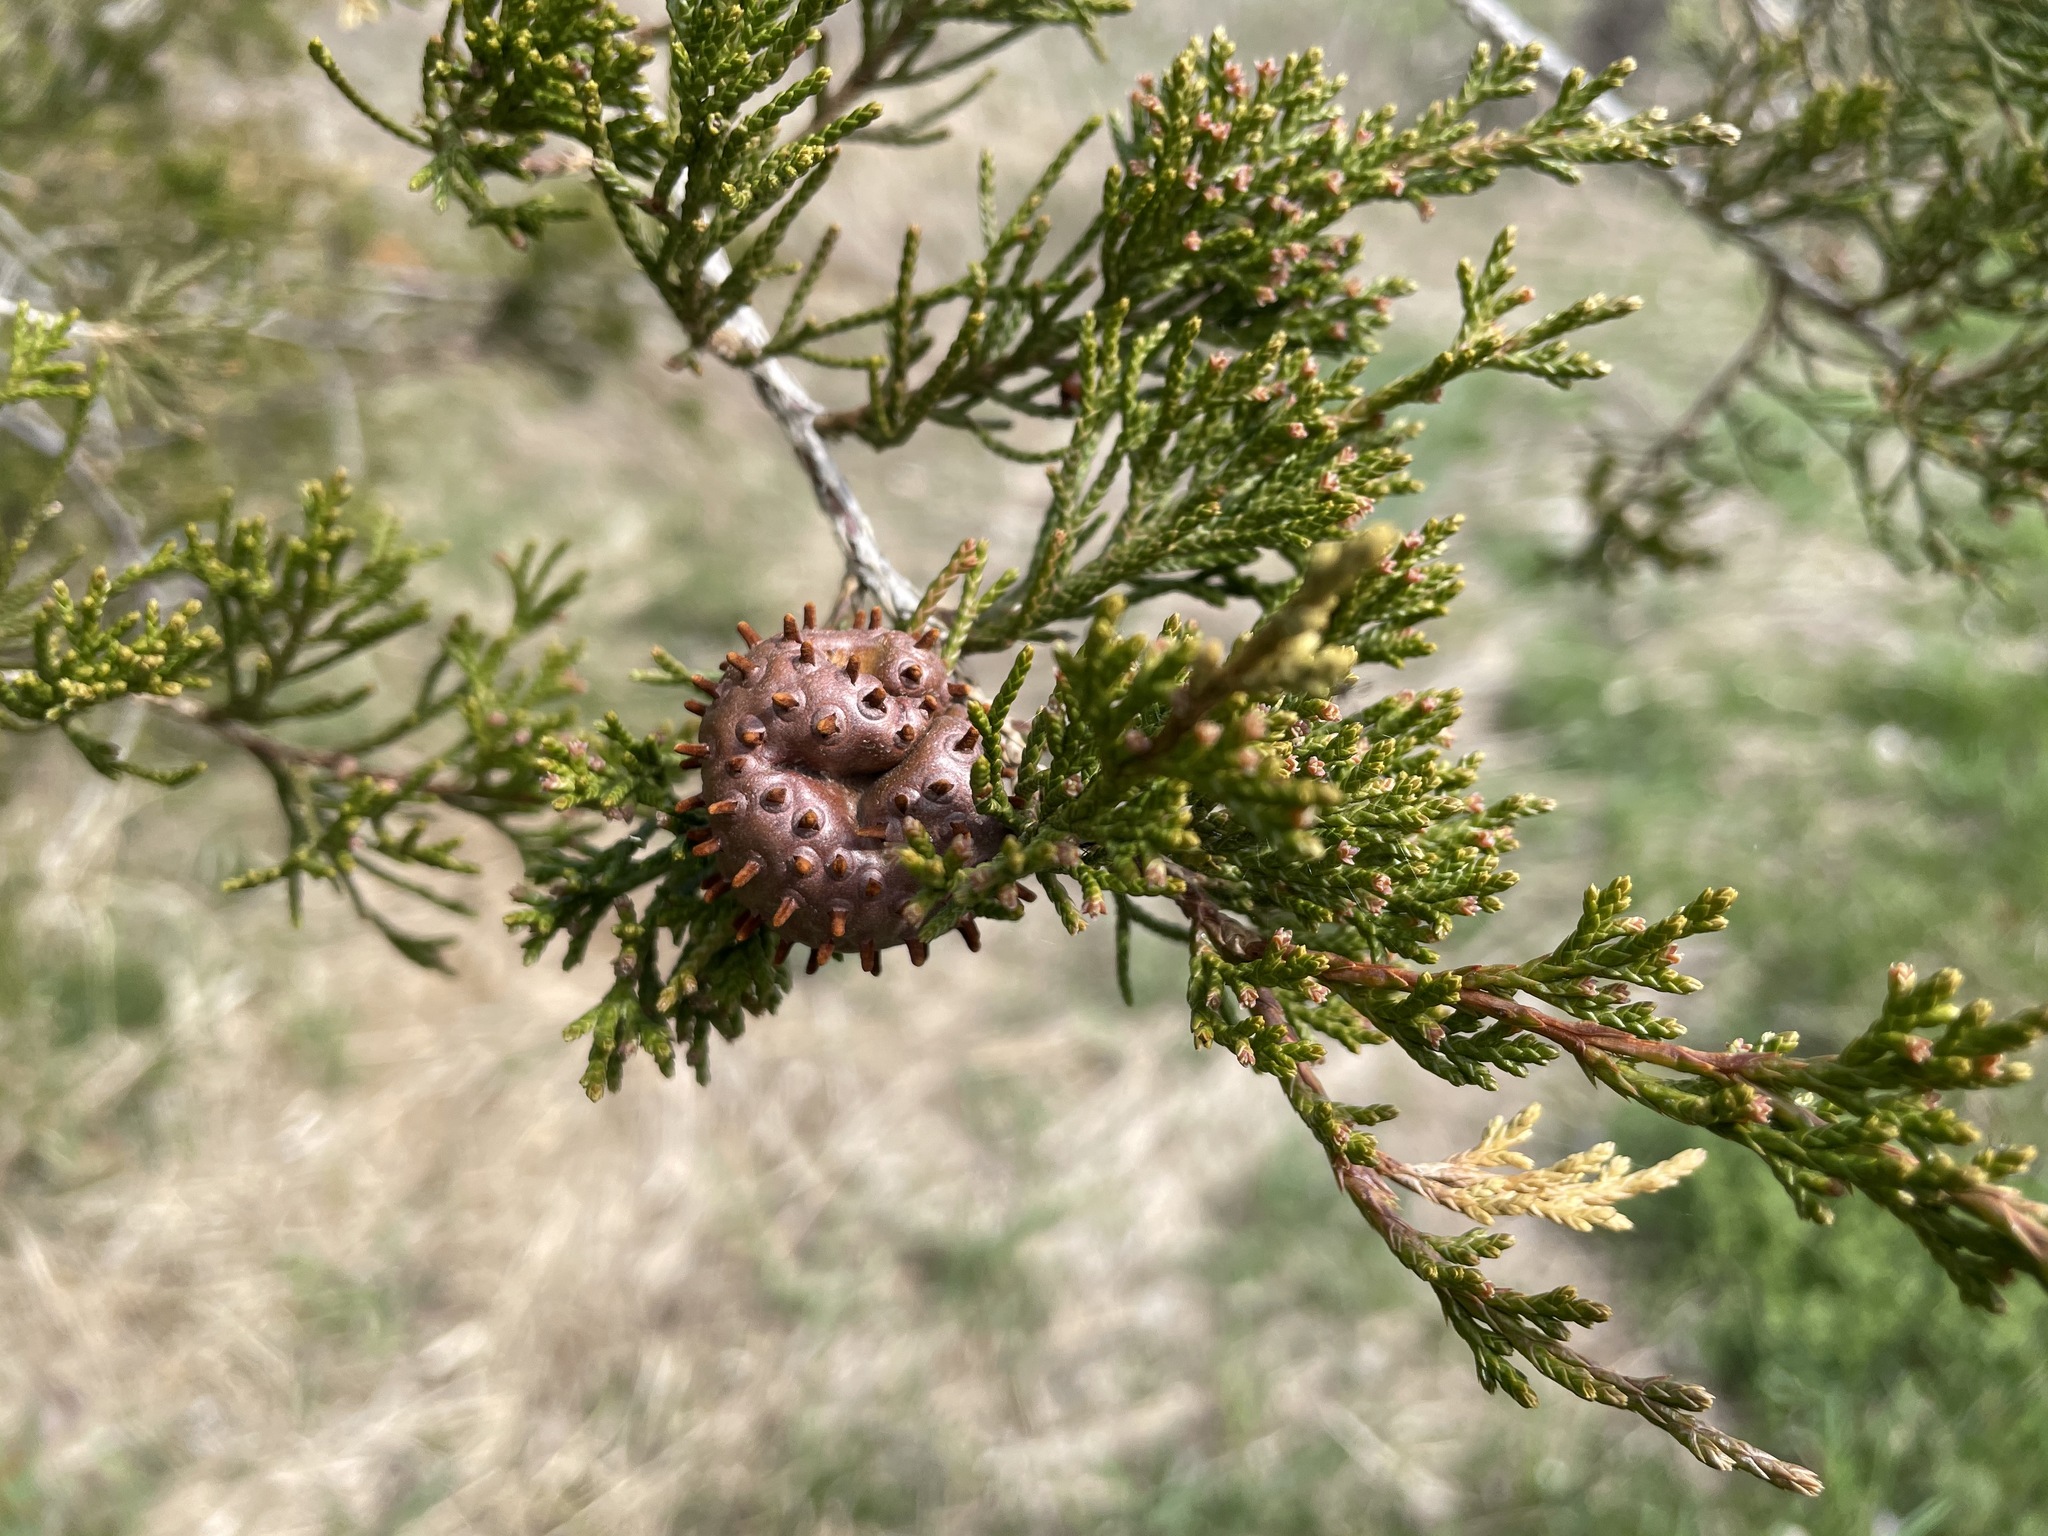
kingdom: Fungi
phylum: Basidiomycota
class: Pucciniomycetes
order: Pucciniales
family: Gymnosporangiaceae
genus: Gymnosporangium
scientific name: Gymnosporangium juniperi-virginianae
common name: Juniper-apple rust
